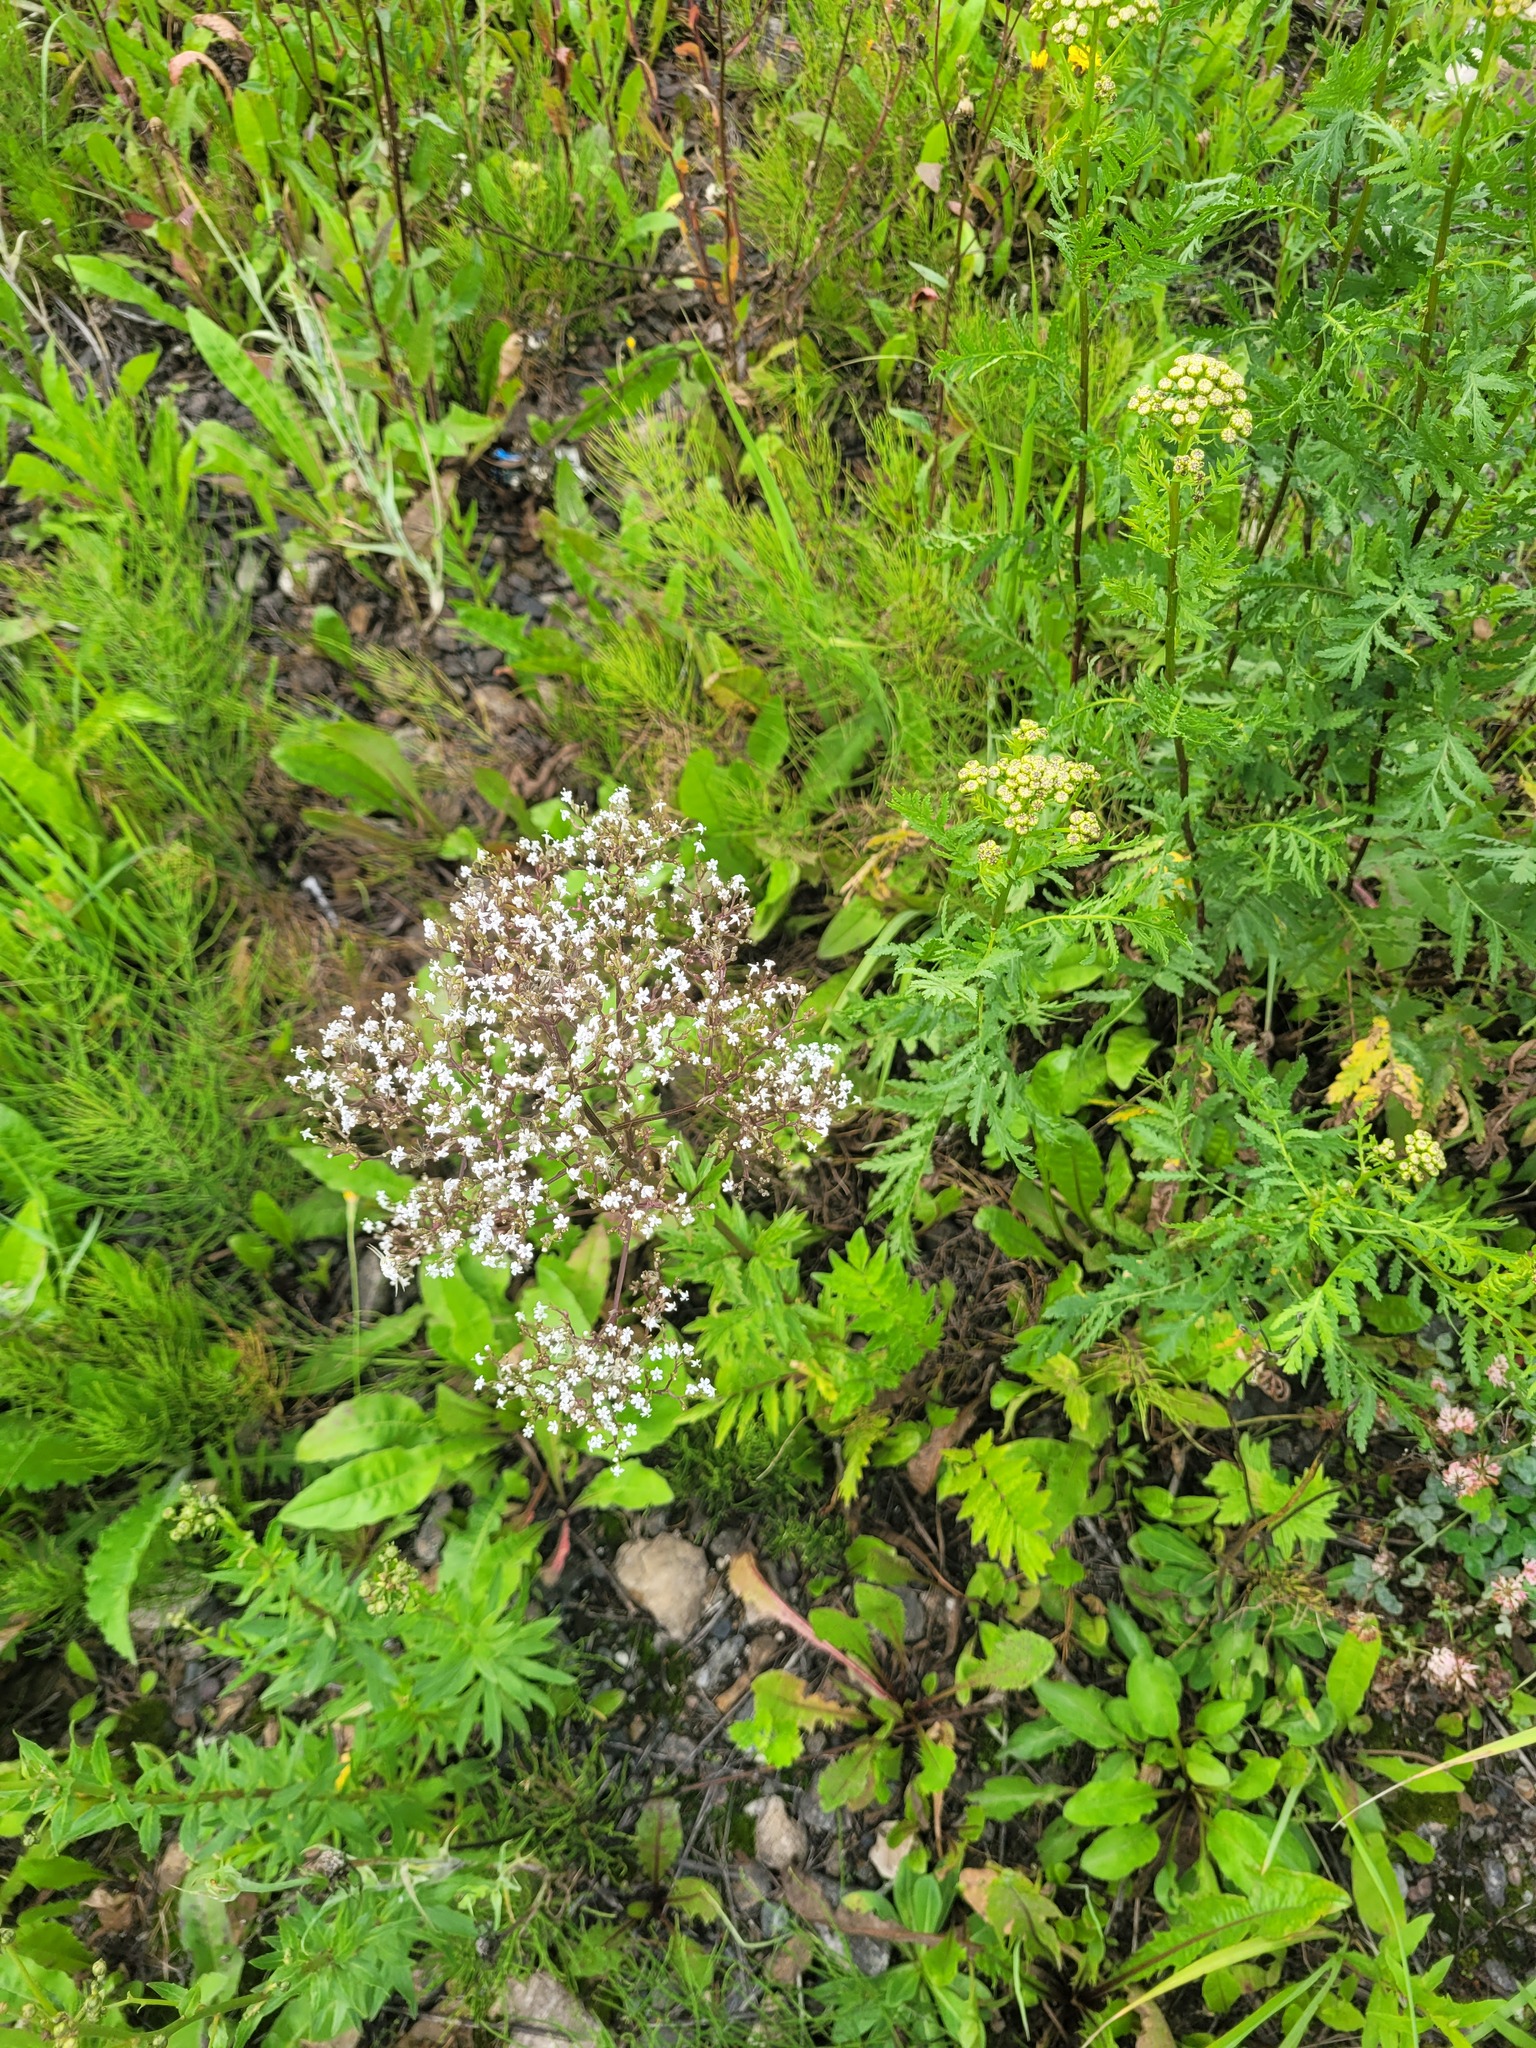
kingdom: Plantae
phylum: Tracheophyta
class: Magnoliopsida
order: Dipsacales
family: Caprifoliaceae
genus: Valeriana
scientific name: Valeriana officinalis
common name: Common valerian
